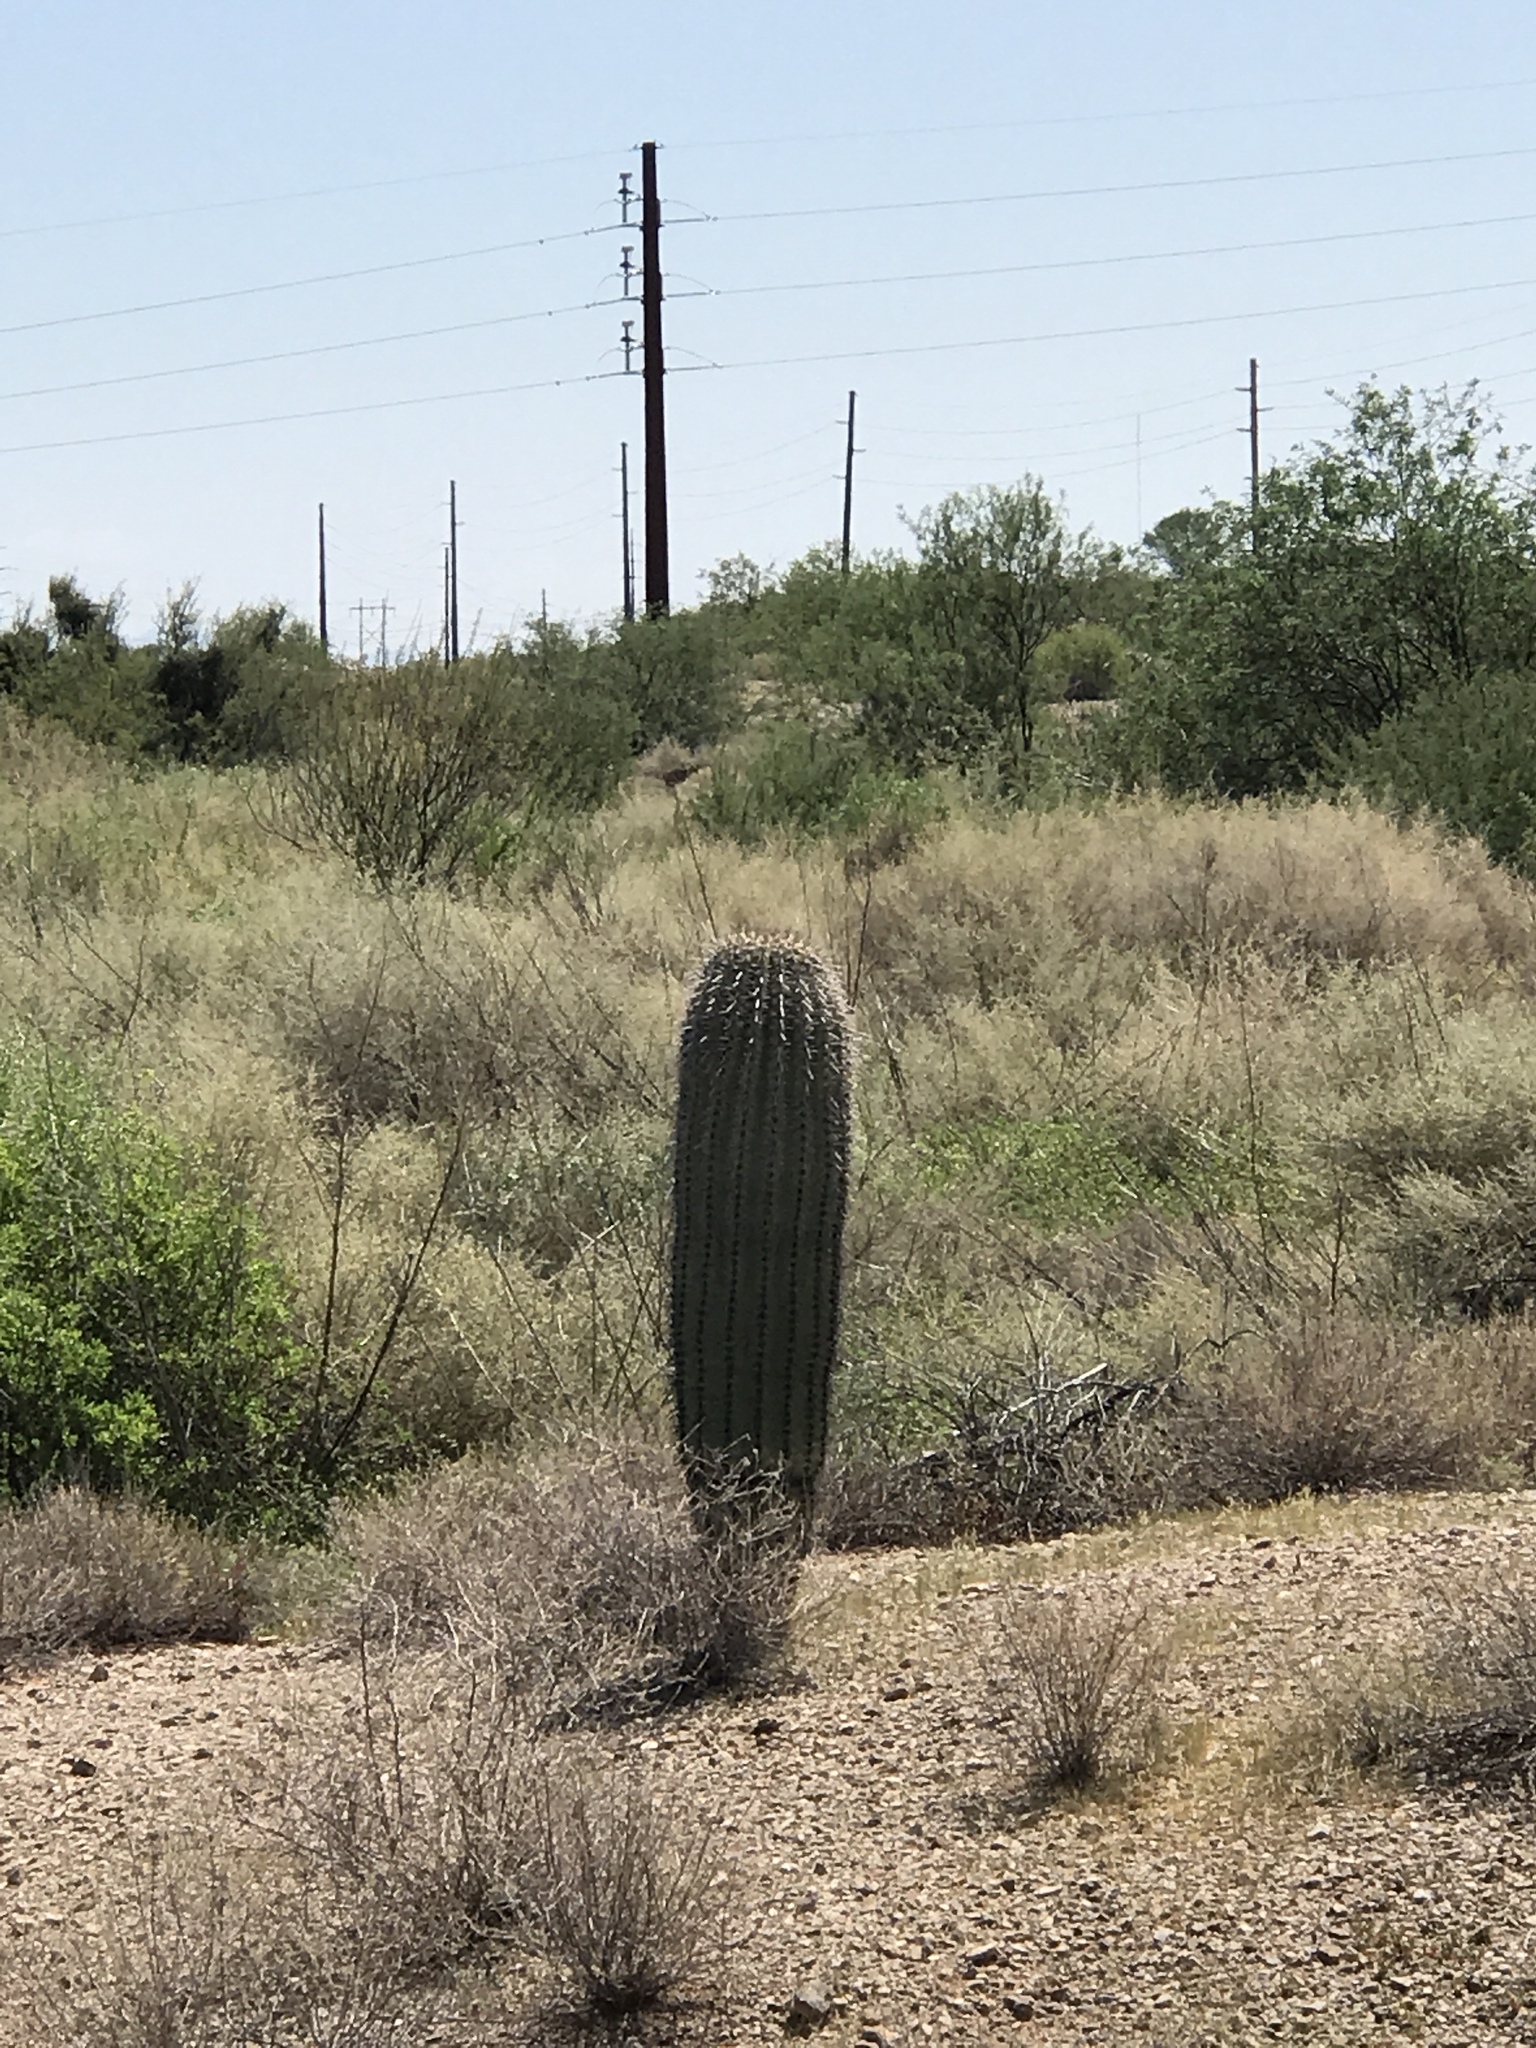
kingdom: Plantae
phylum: Tracheophyta
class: Magnoliopsida
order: Caryophyllales
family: Cactaceae
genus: Carnegiea
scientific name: Carnegiea gigantea
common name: Saguaro
